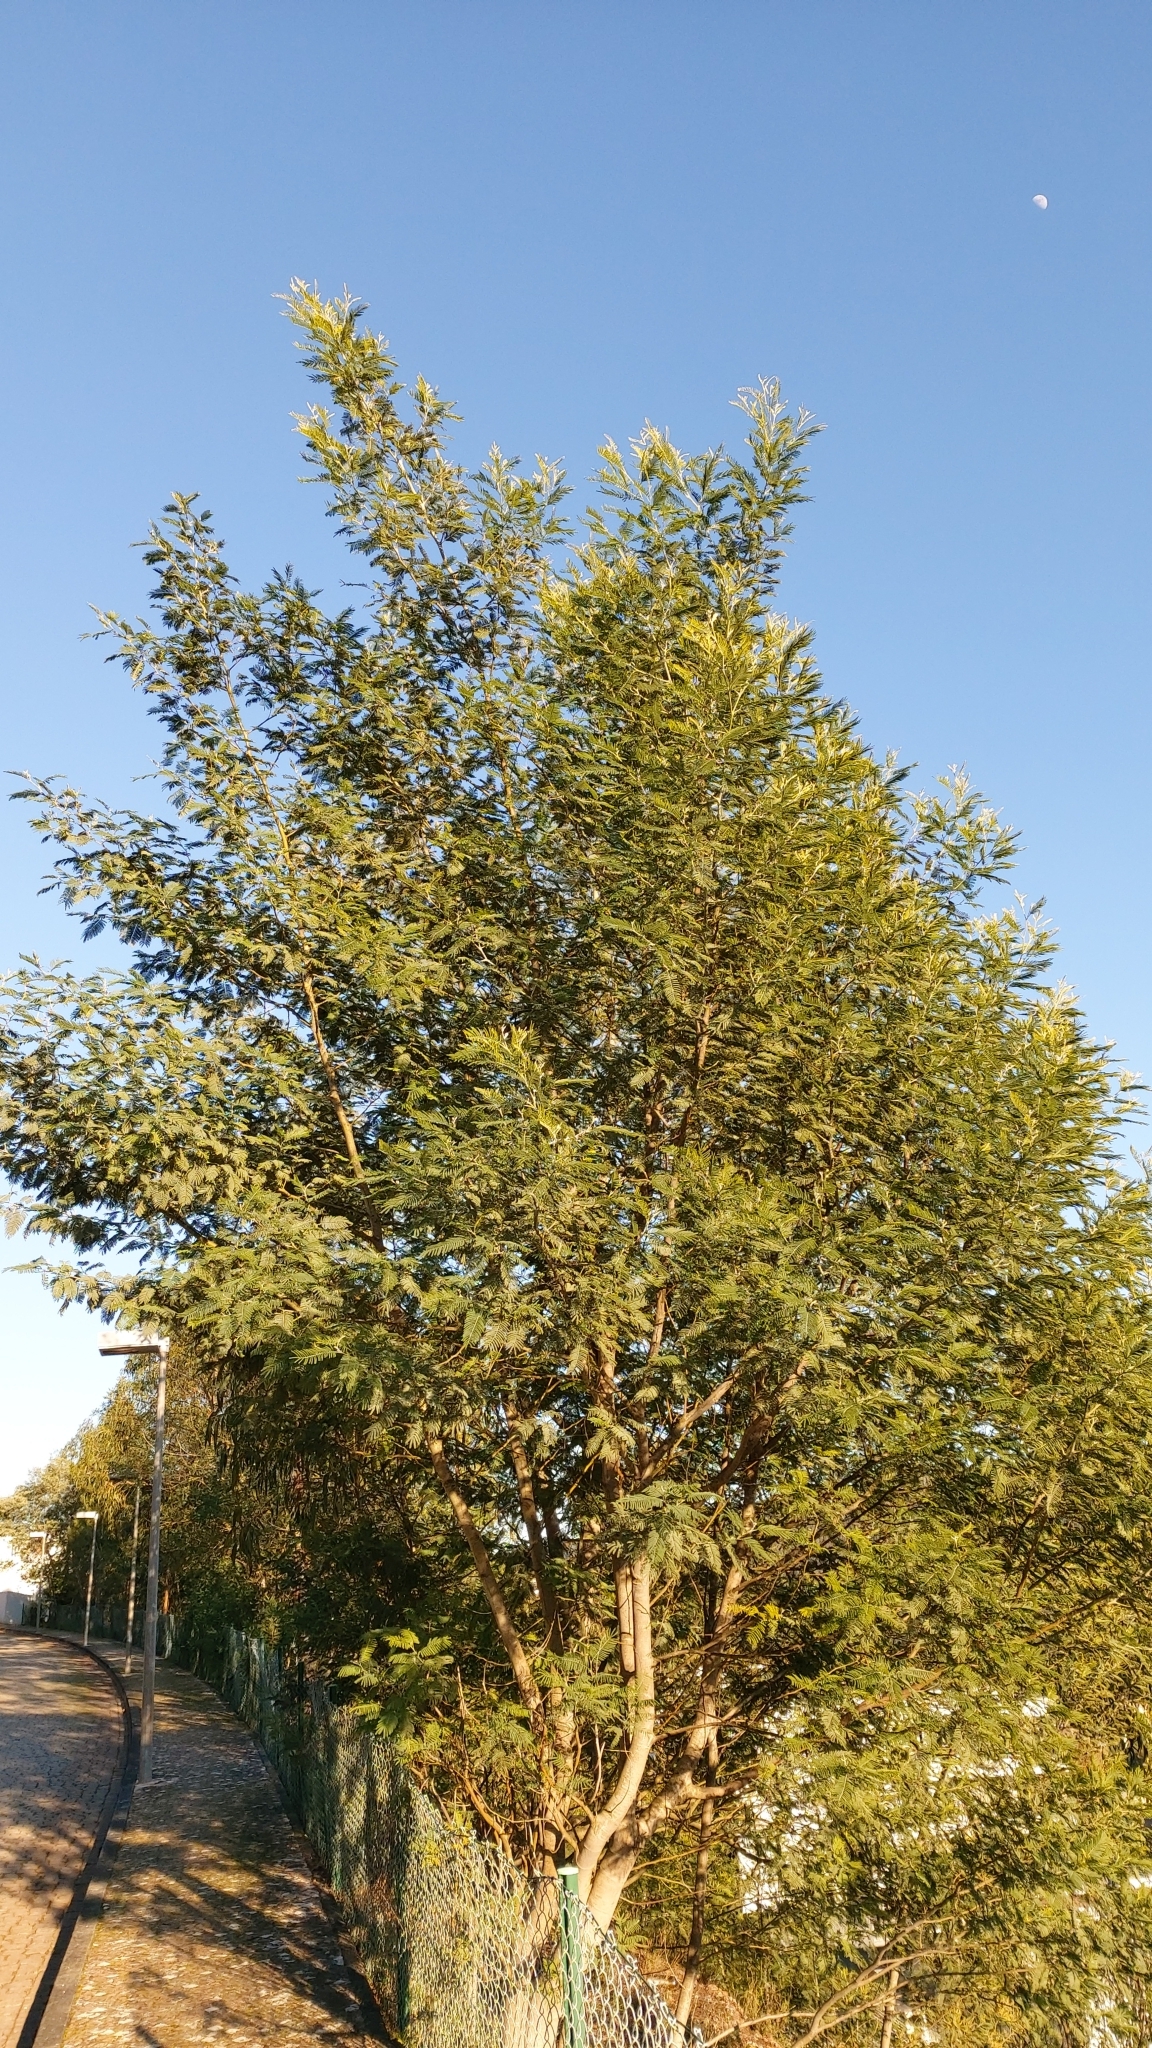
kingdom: Plantae
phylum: Tracheophyta
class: Magnoliopsida
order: Fabales
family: Fabaceae
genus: Acacia
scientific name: Acacia dealbata
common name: Silver wattle
